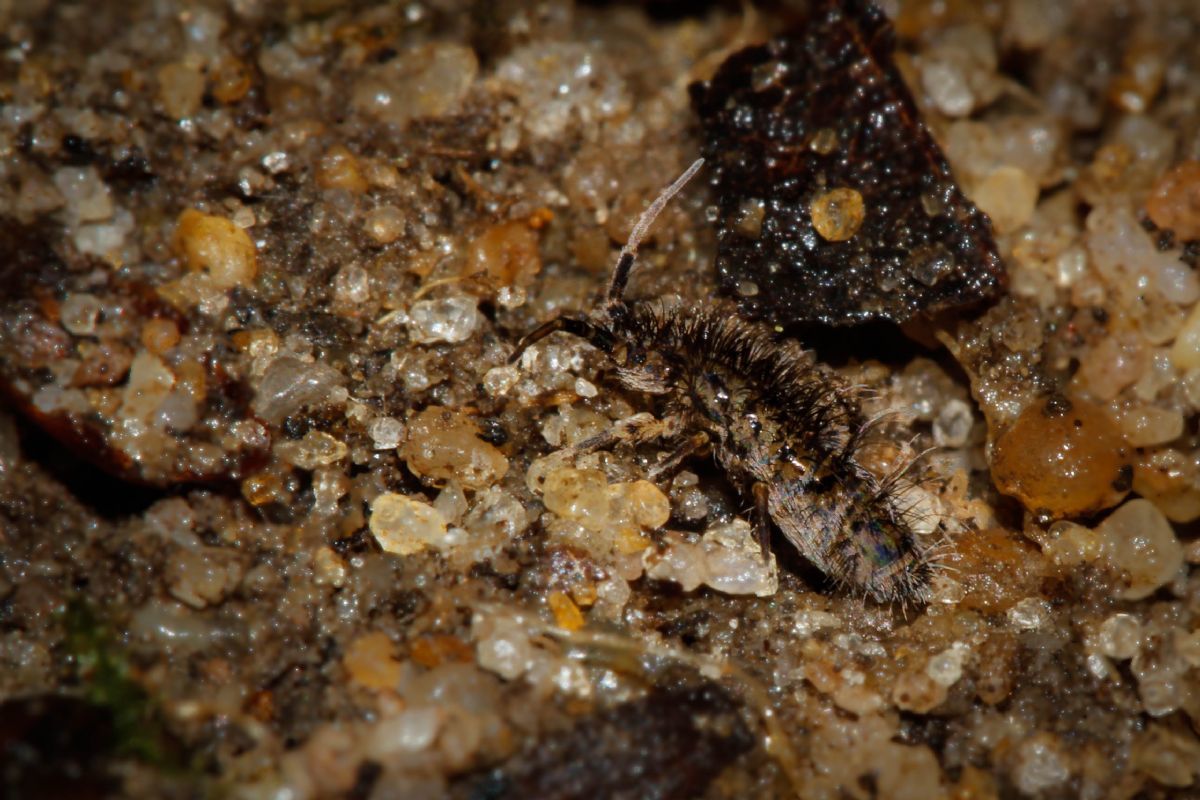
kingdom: Animalia
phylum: Arthropoda
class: Collembola
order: Entomobryomorpha
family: Orchesellidae
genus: Orchesella
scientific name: Orchesella villosa
